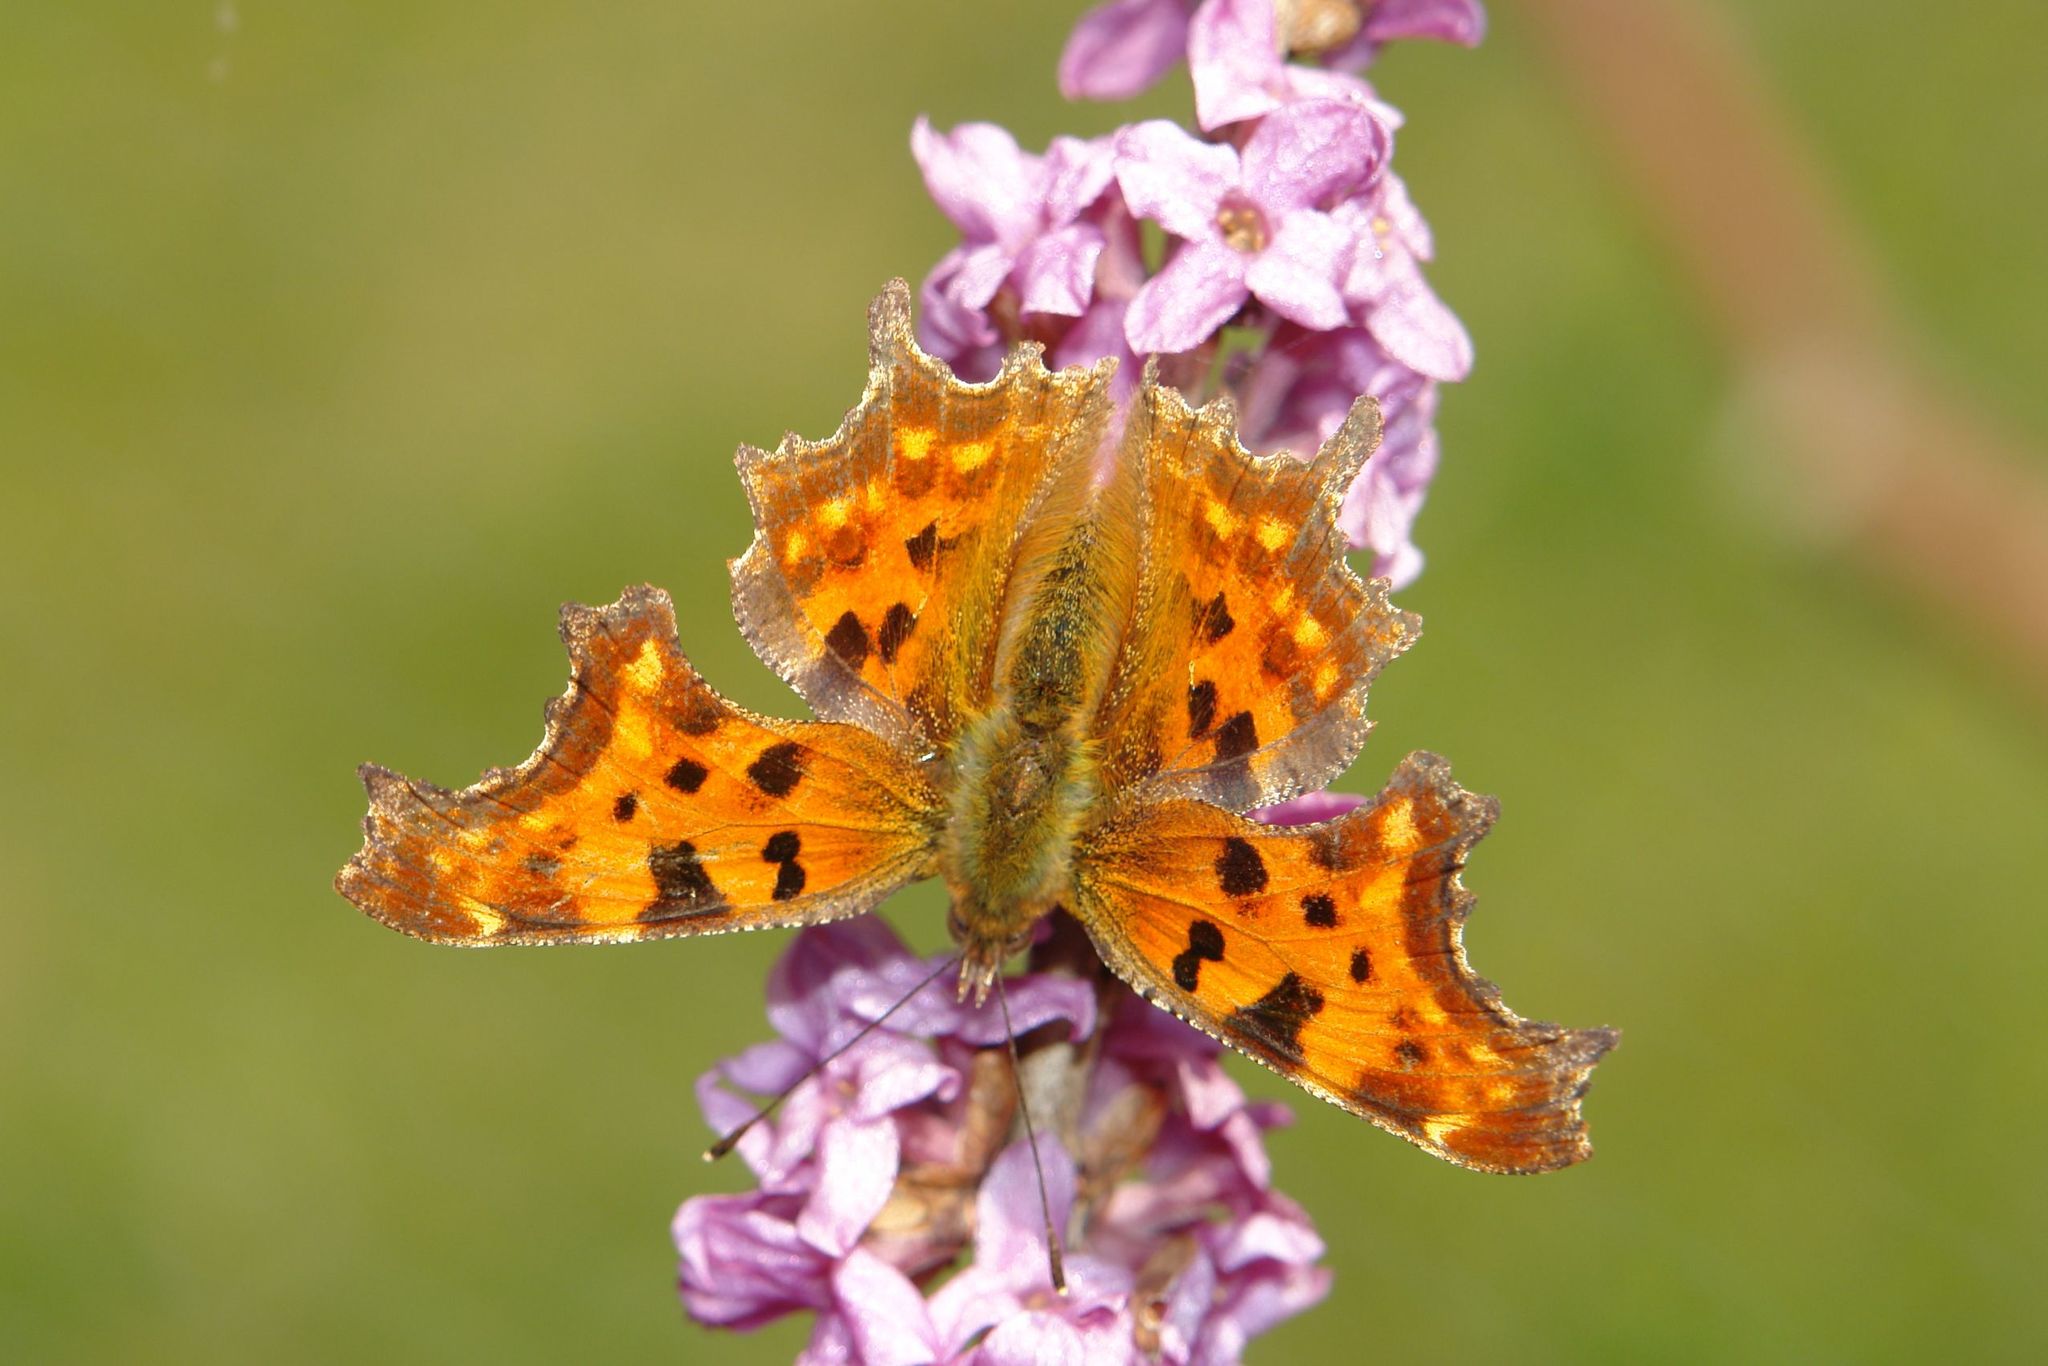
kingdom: Animalia
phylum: Arthropoda
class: Insecta
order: Lepidoptera
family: Nymphalidae
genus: Polygonia
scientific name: Polygonia c-album
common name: Comma
